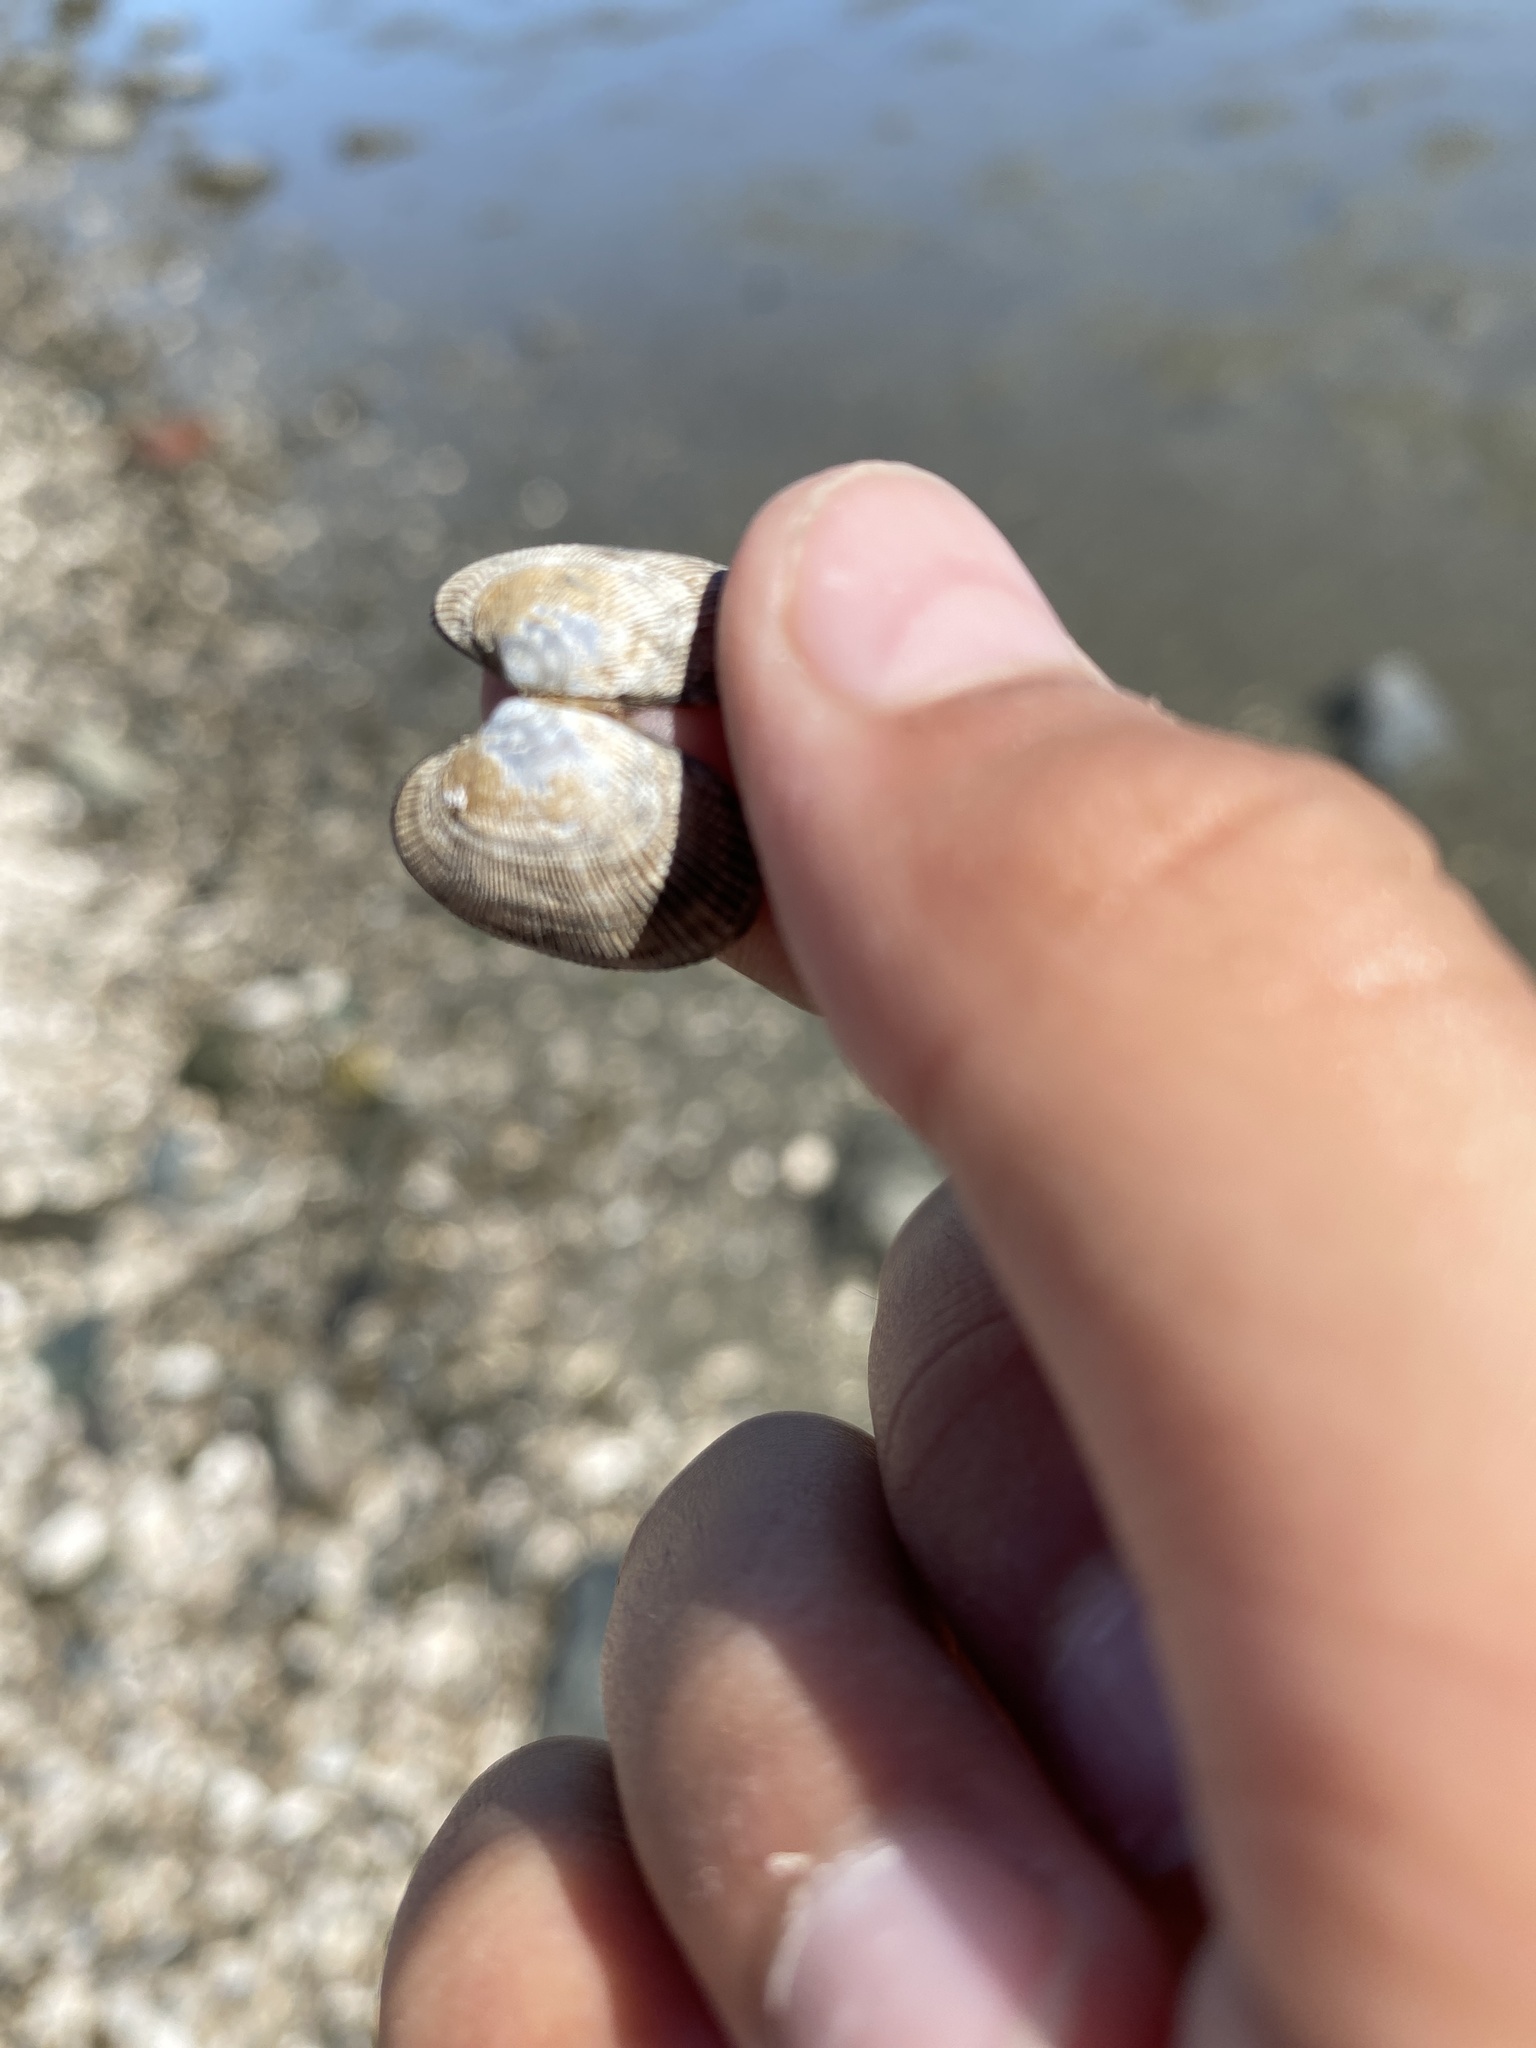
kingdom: Animalia
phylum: Mollusca
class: Bivalvia
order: Venerida
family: Veneridae
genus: Ruditapes
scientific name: Ruditapes philippinarum
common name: Manila clam
